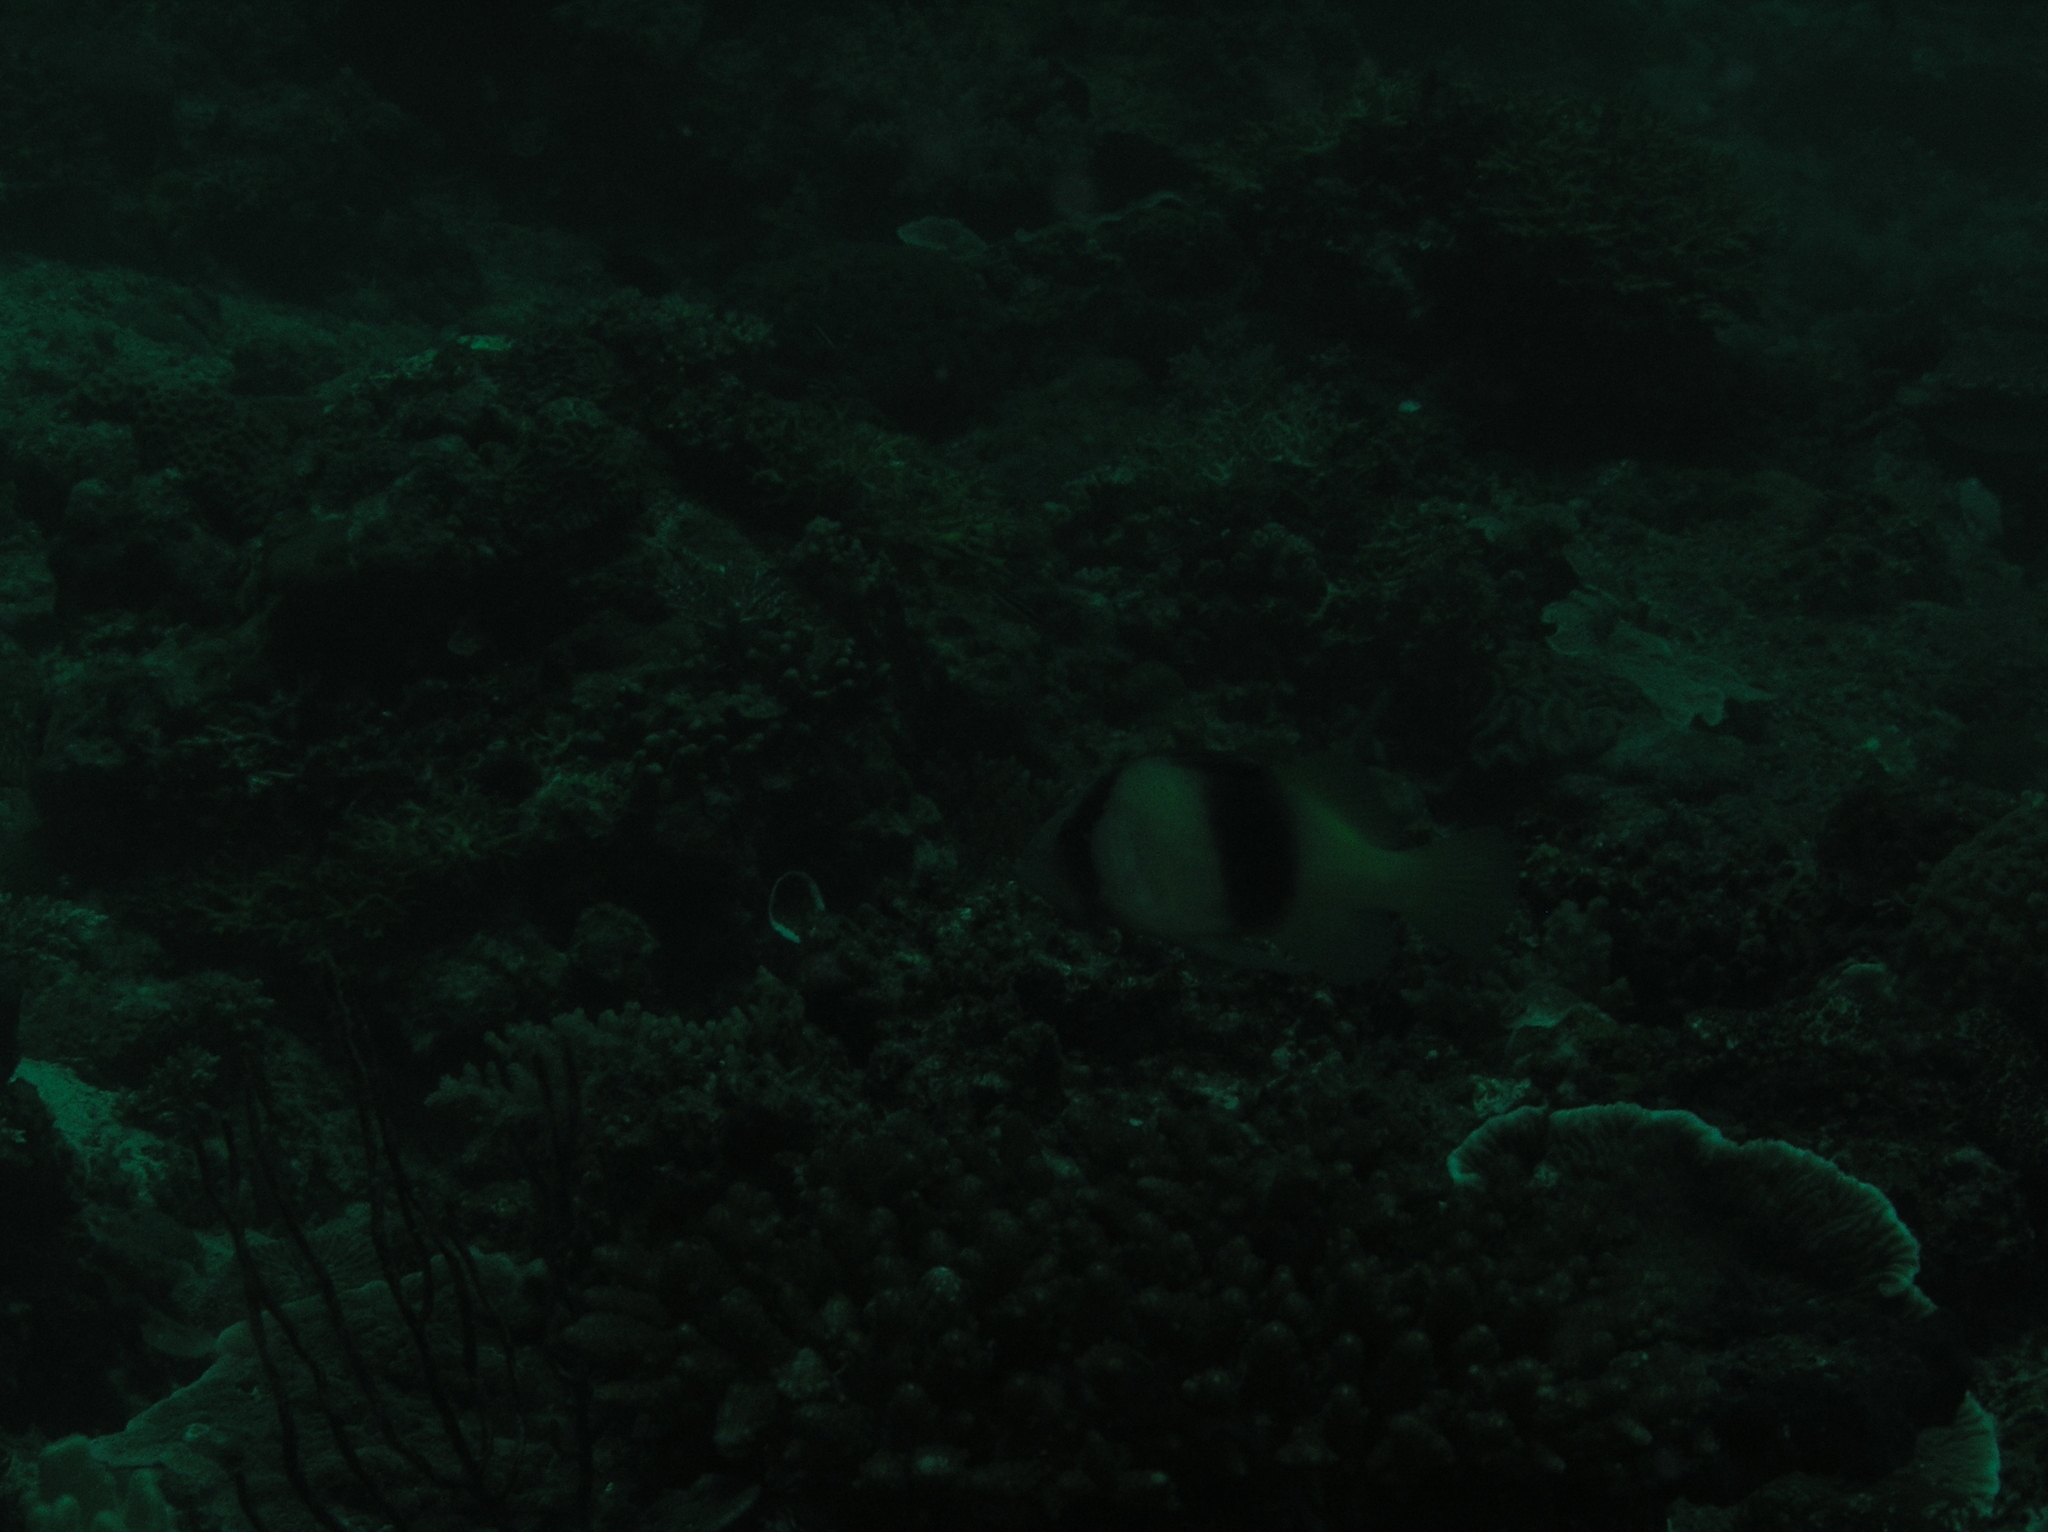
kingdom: Animalia
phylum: Chordata
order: Perciformes
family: Serranidae
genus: Diploprion
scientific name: Diploprion bifasciatum
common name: Barred soapfish
